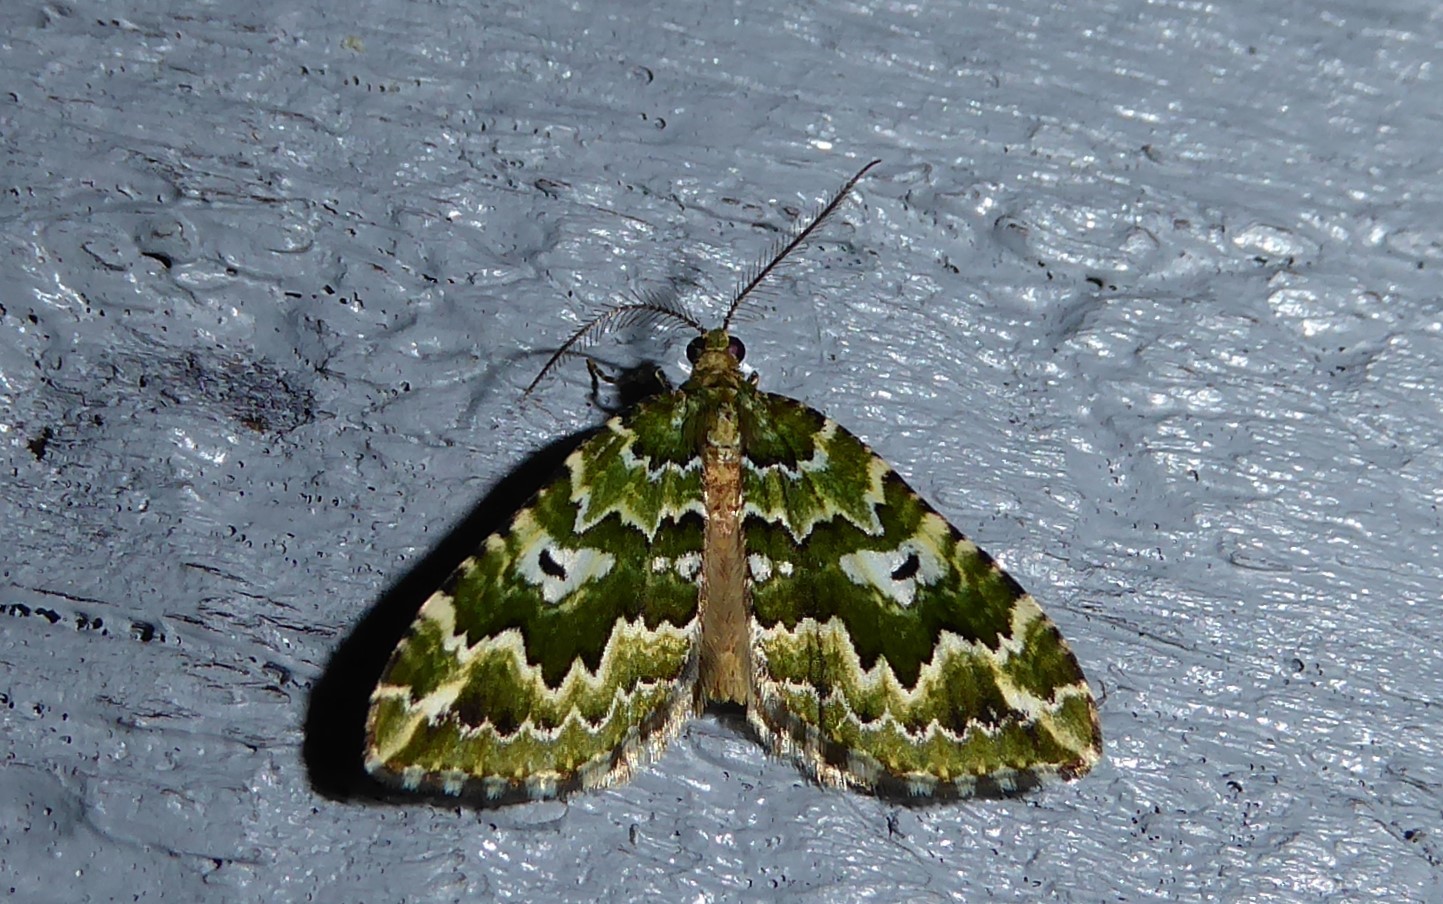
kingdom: Animalia
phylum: Arthropoda
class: Insecta
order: Lepidoptera
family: Geometridae
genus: Asaphodes
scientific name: Asaphodes beata
